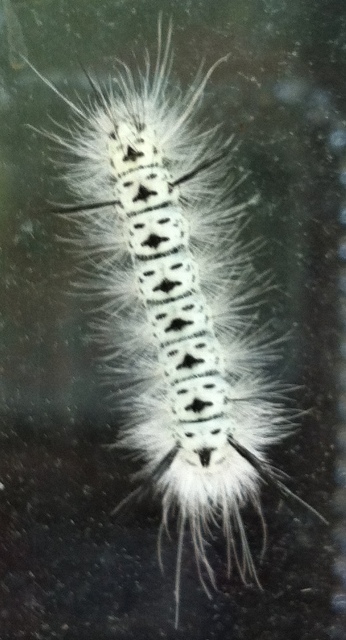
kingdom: Animalia
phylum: Arthropoda
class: Insecta
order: Lepidoptera
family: Erebidae
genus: Lophocampa
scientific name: Lophocampa caryae
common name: Hickory tussock moth
